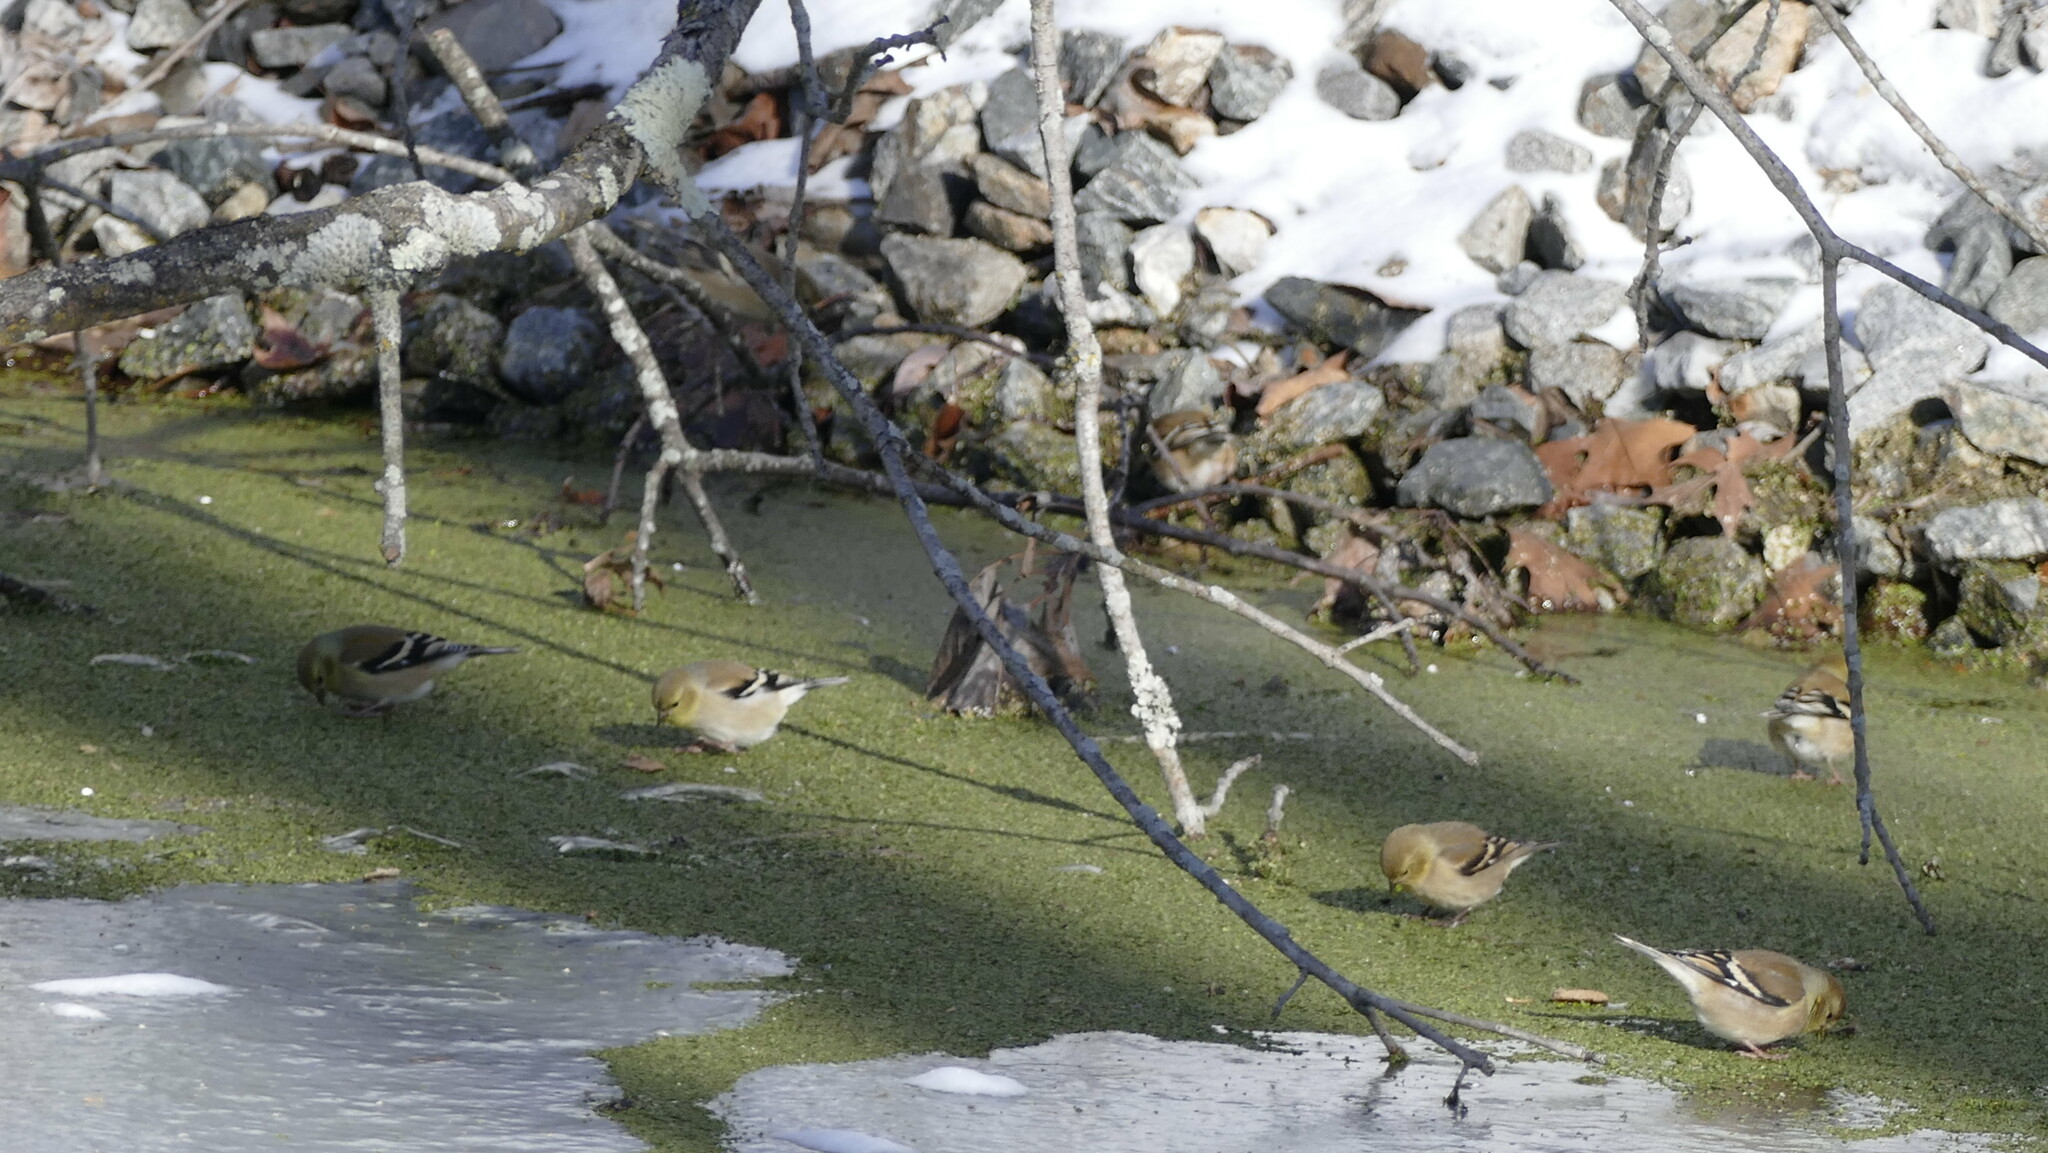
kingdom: Animalia
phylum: Chordata
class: Aves
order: Passeriformes
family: Fringillidae
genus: Spinus
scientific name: Spinus tristis
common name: American goldfinch
